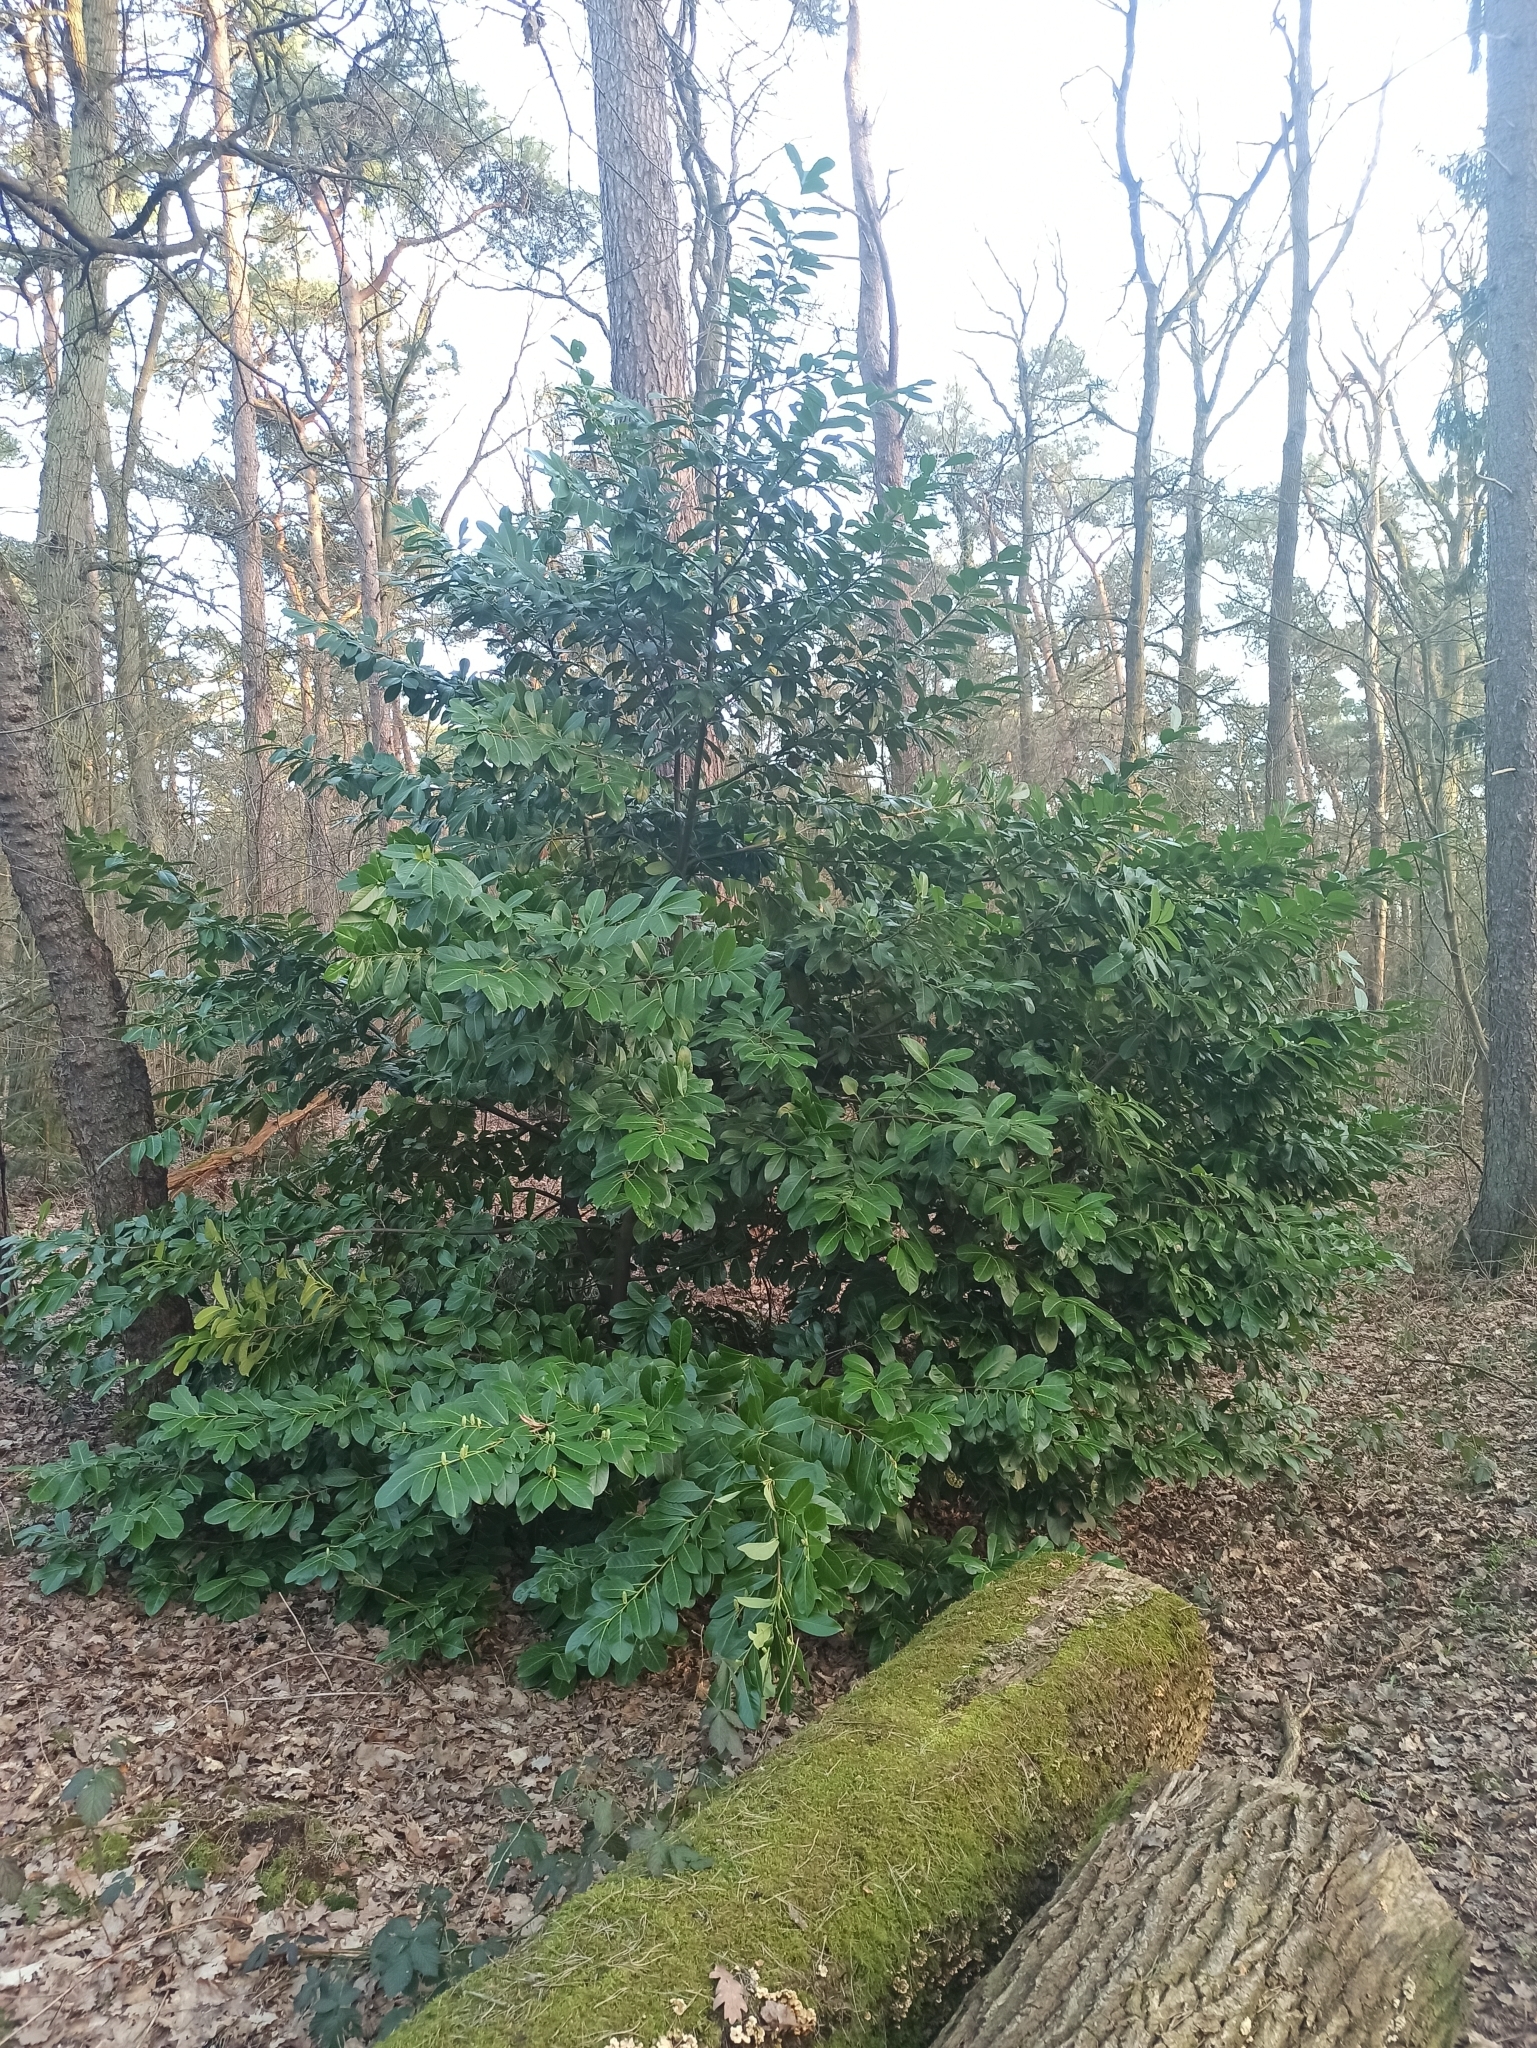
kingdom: Plantae
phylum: Tracheophyta
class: Magnoliopsida
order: Rosales
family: Rosaceae
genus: Prunus
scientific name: Prunus laurocerasus
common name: Cherry laurel
